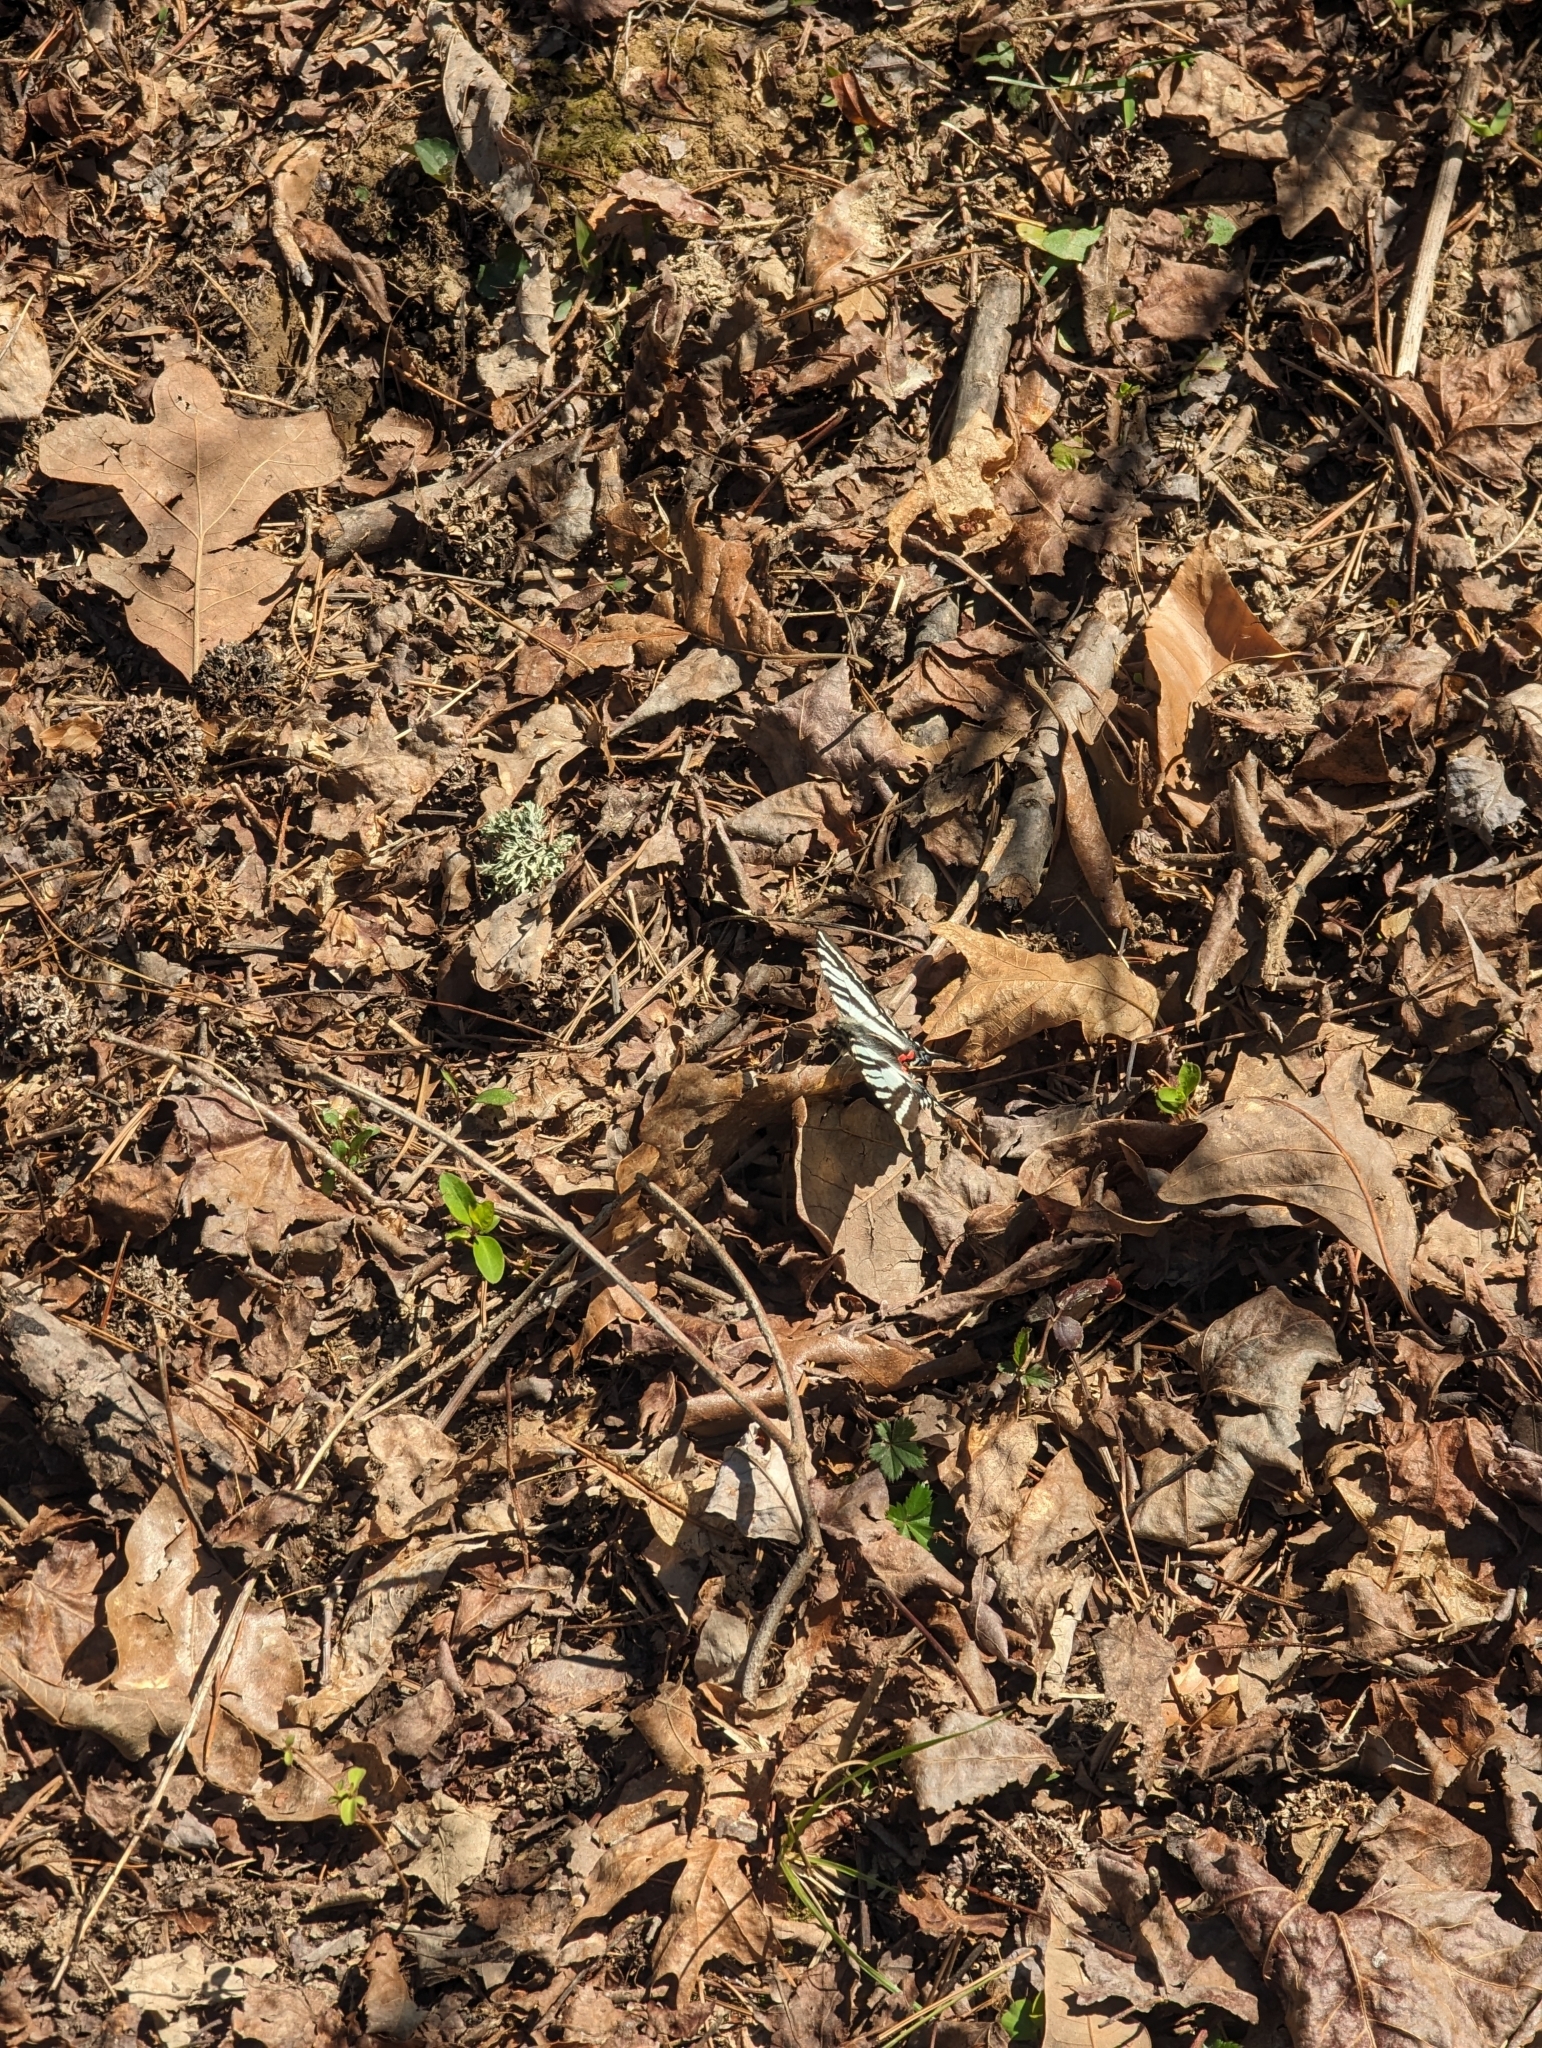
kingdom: Animalia
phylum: Arthropoda
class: Insecta
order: Lepidoptera
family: Papilionidae
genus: Protographium
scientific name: Protographium marcellus
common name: Zebra swallowtail
